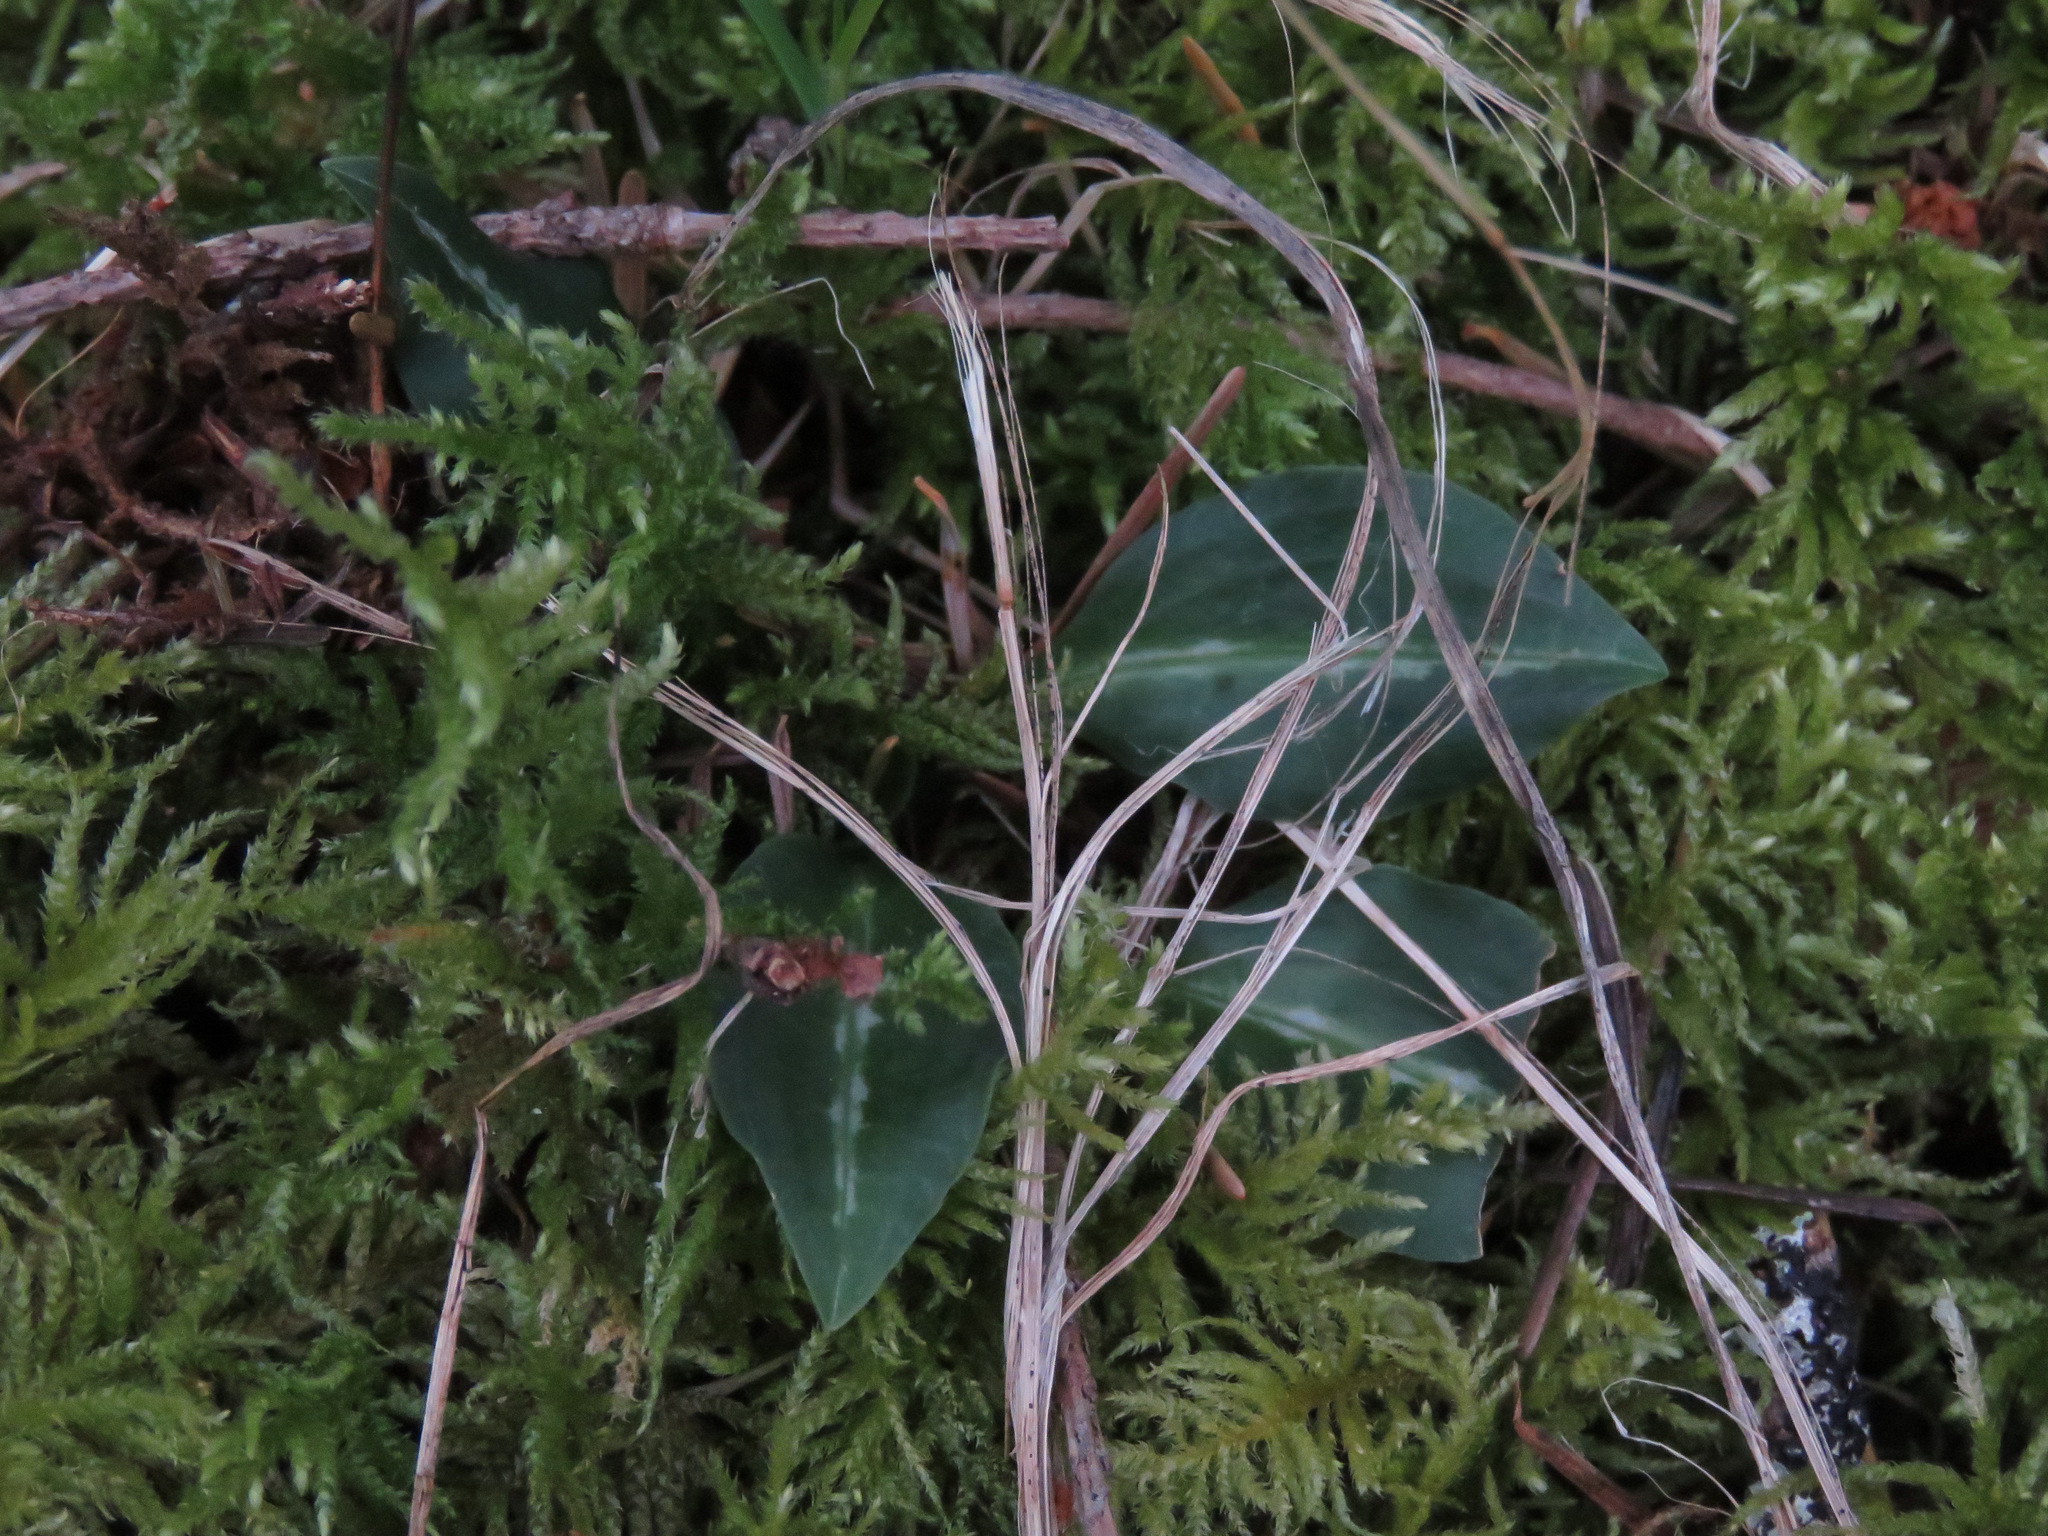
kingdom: Plantae
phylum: Tracheophyta
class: Liliopsida
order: Asparagales
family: Orchidaceae
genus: Goodyera
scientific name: Goodyera oblongifolia
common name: Giant rattlesnake-plantain
